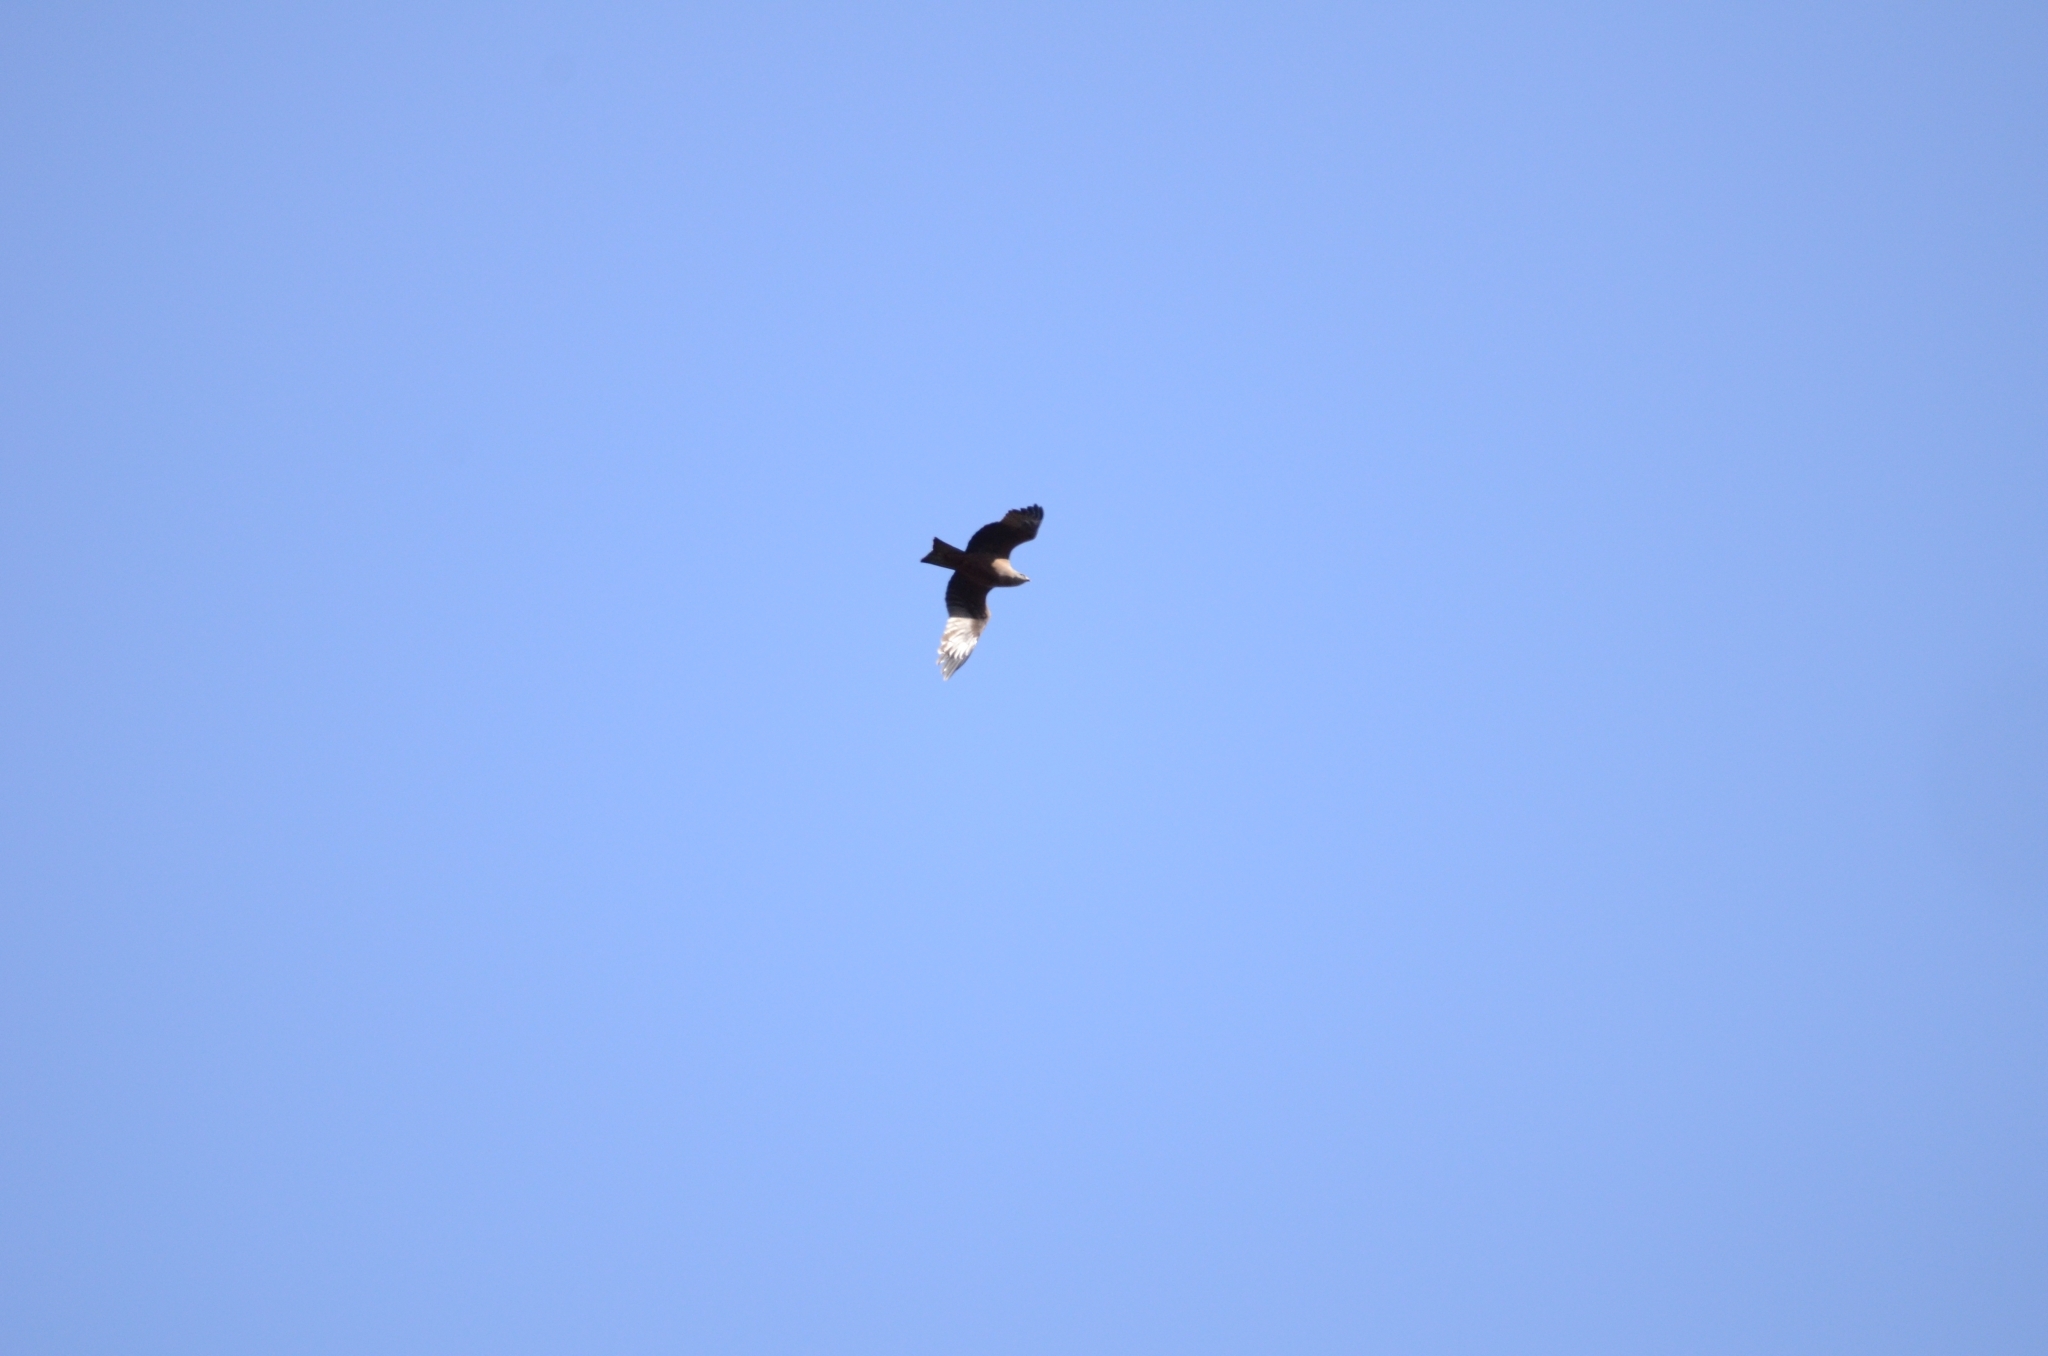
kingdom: Animalia
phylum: Chordata
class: Aves
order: Accipitriformes
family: Accipitridae
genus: Milvus
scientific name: Milvus milvus
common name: Red kite
